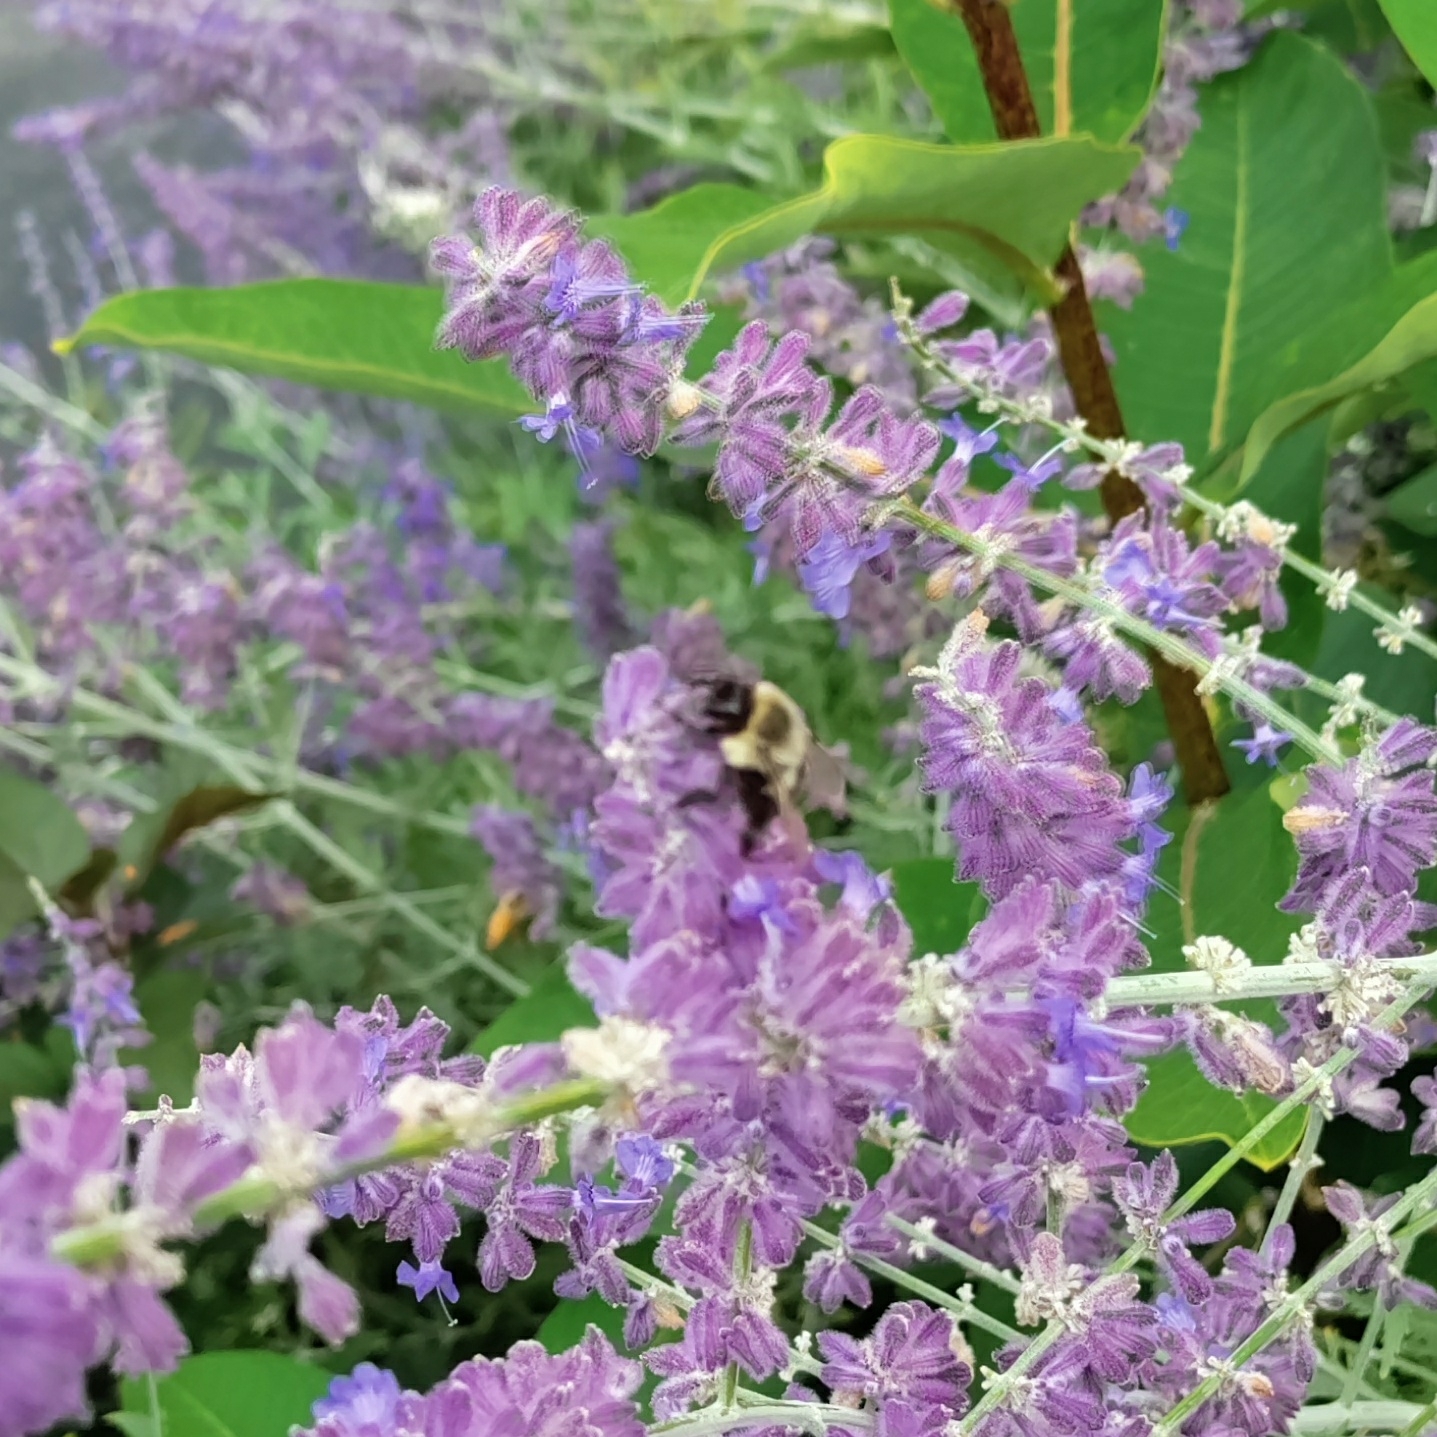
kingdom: Animalia
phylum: Arthropoda
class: Insecta
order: Hymenoptera
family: Apidae
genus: Bombus
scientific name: Bombus impatiens
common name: Common eastern bumble bee
